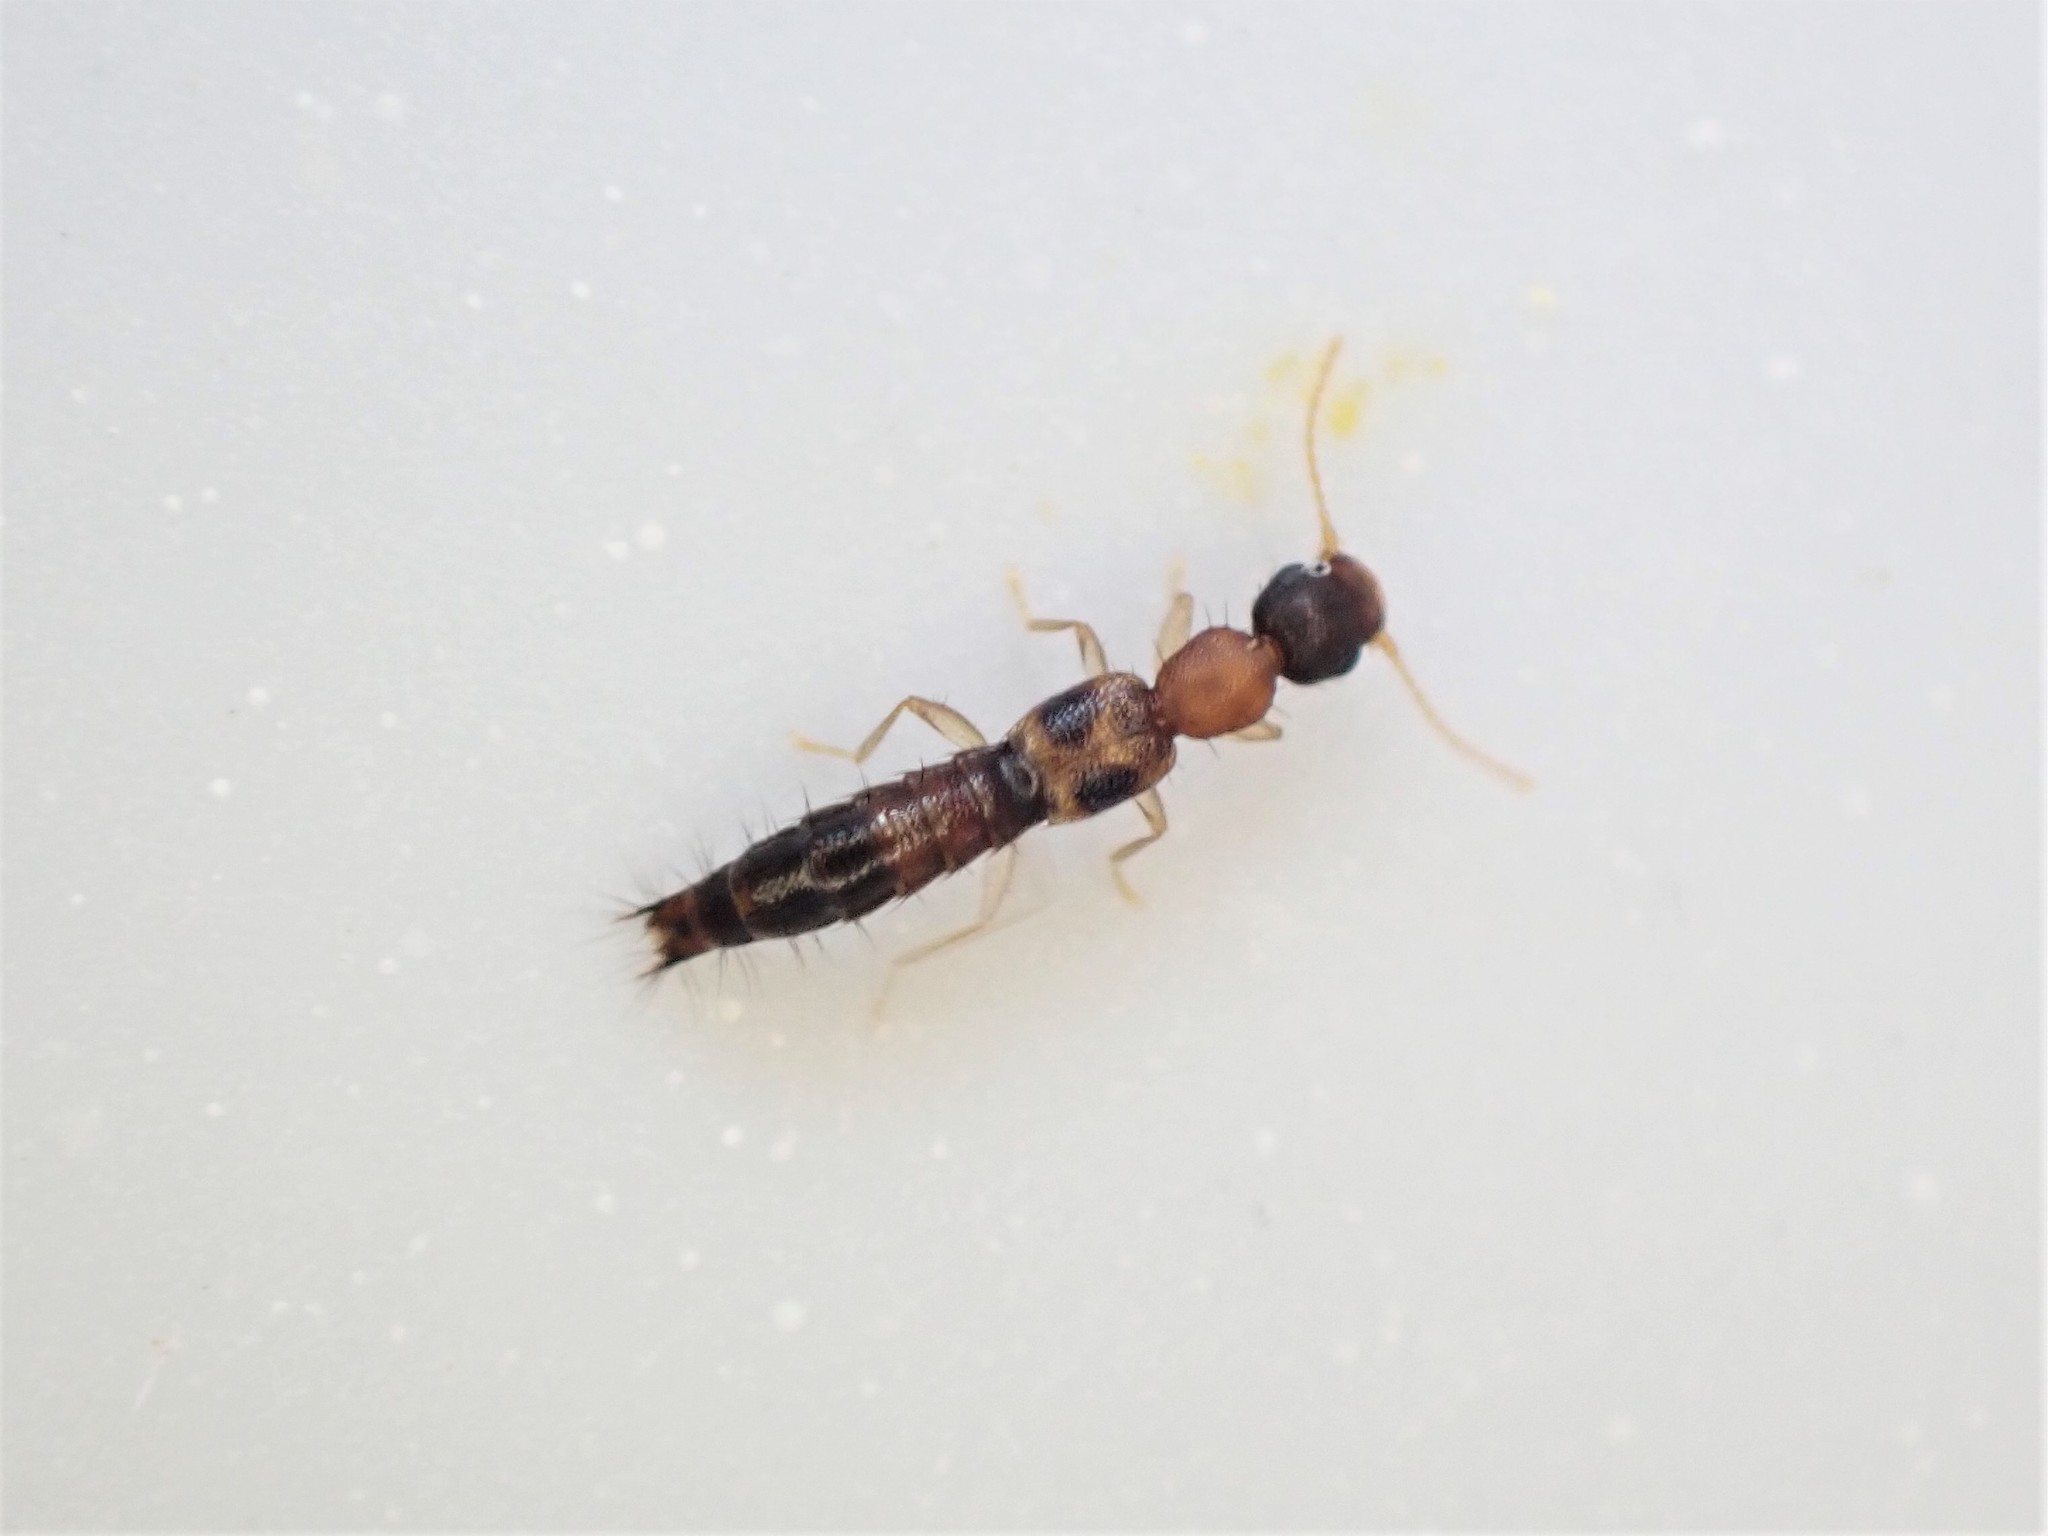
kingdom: Animalia
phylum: Arthropoda
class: Insecta
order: Coleoptera
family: Staphylinidae
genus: Astenus
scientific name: Astenus guttulus
